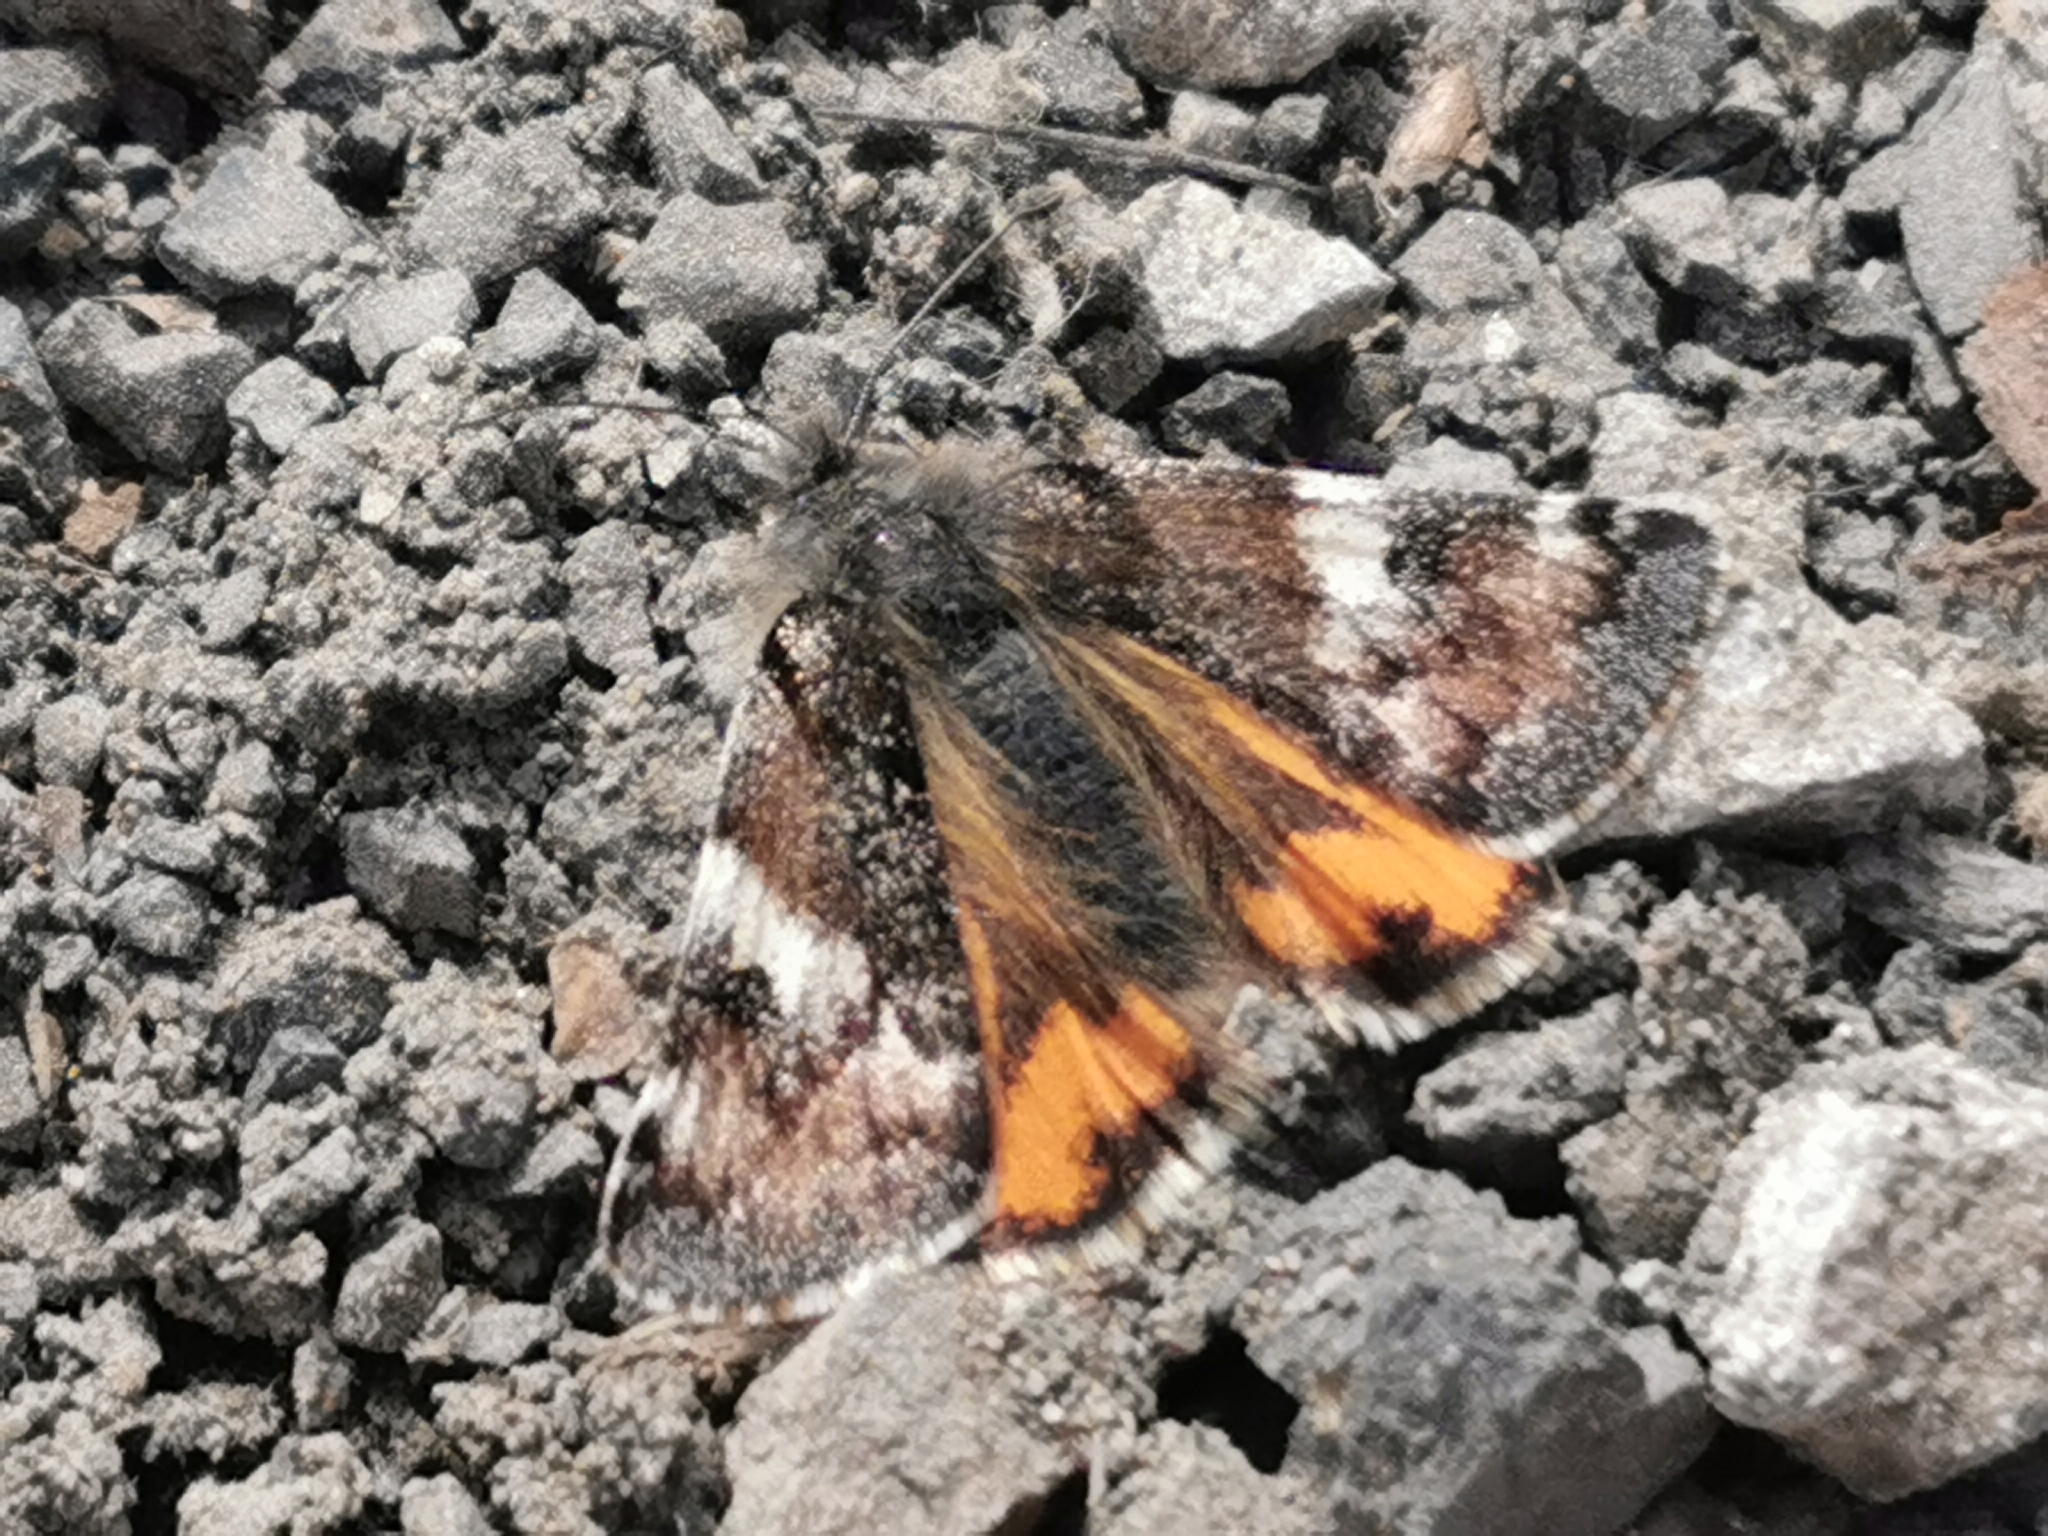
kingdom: Animalia
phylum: Arthropoda
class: Insecta
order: Lepidoptera
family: Geometridae
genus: Archiearis
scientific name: Archiearis parthenias
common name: Orange underwing
